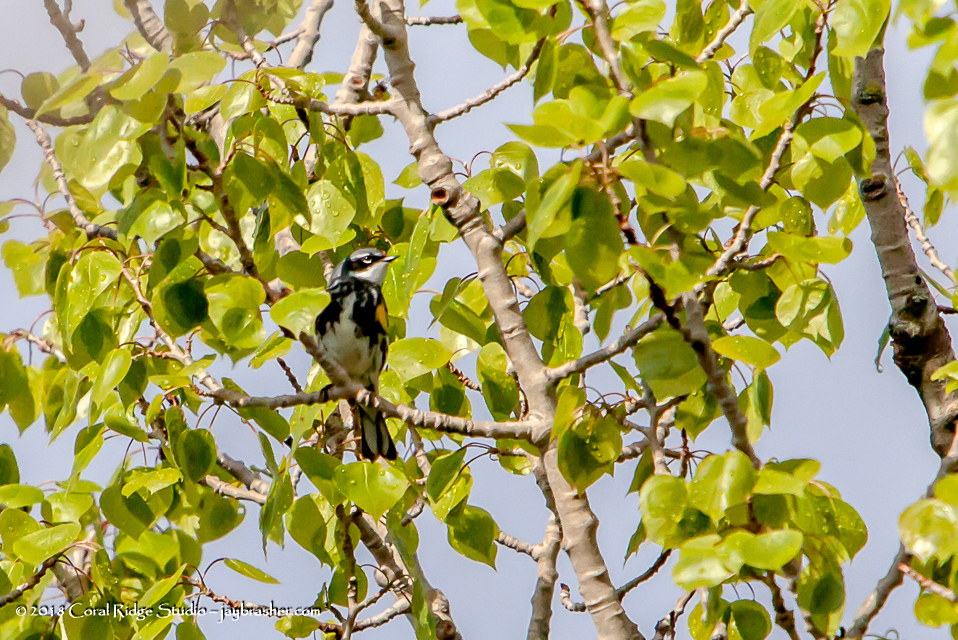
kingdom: Animalia
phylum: Chordata
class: Aves
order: Passeriformes
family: Parulidae
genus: Setophaga
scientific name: Setophaga coronata
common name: Myrtle warbler
